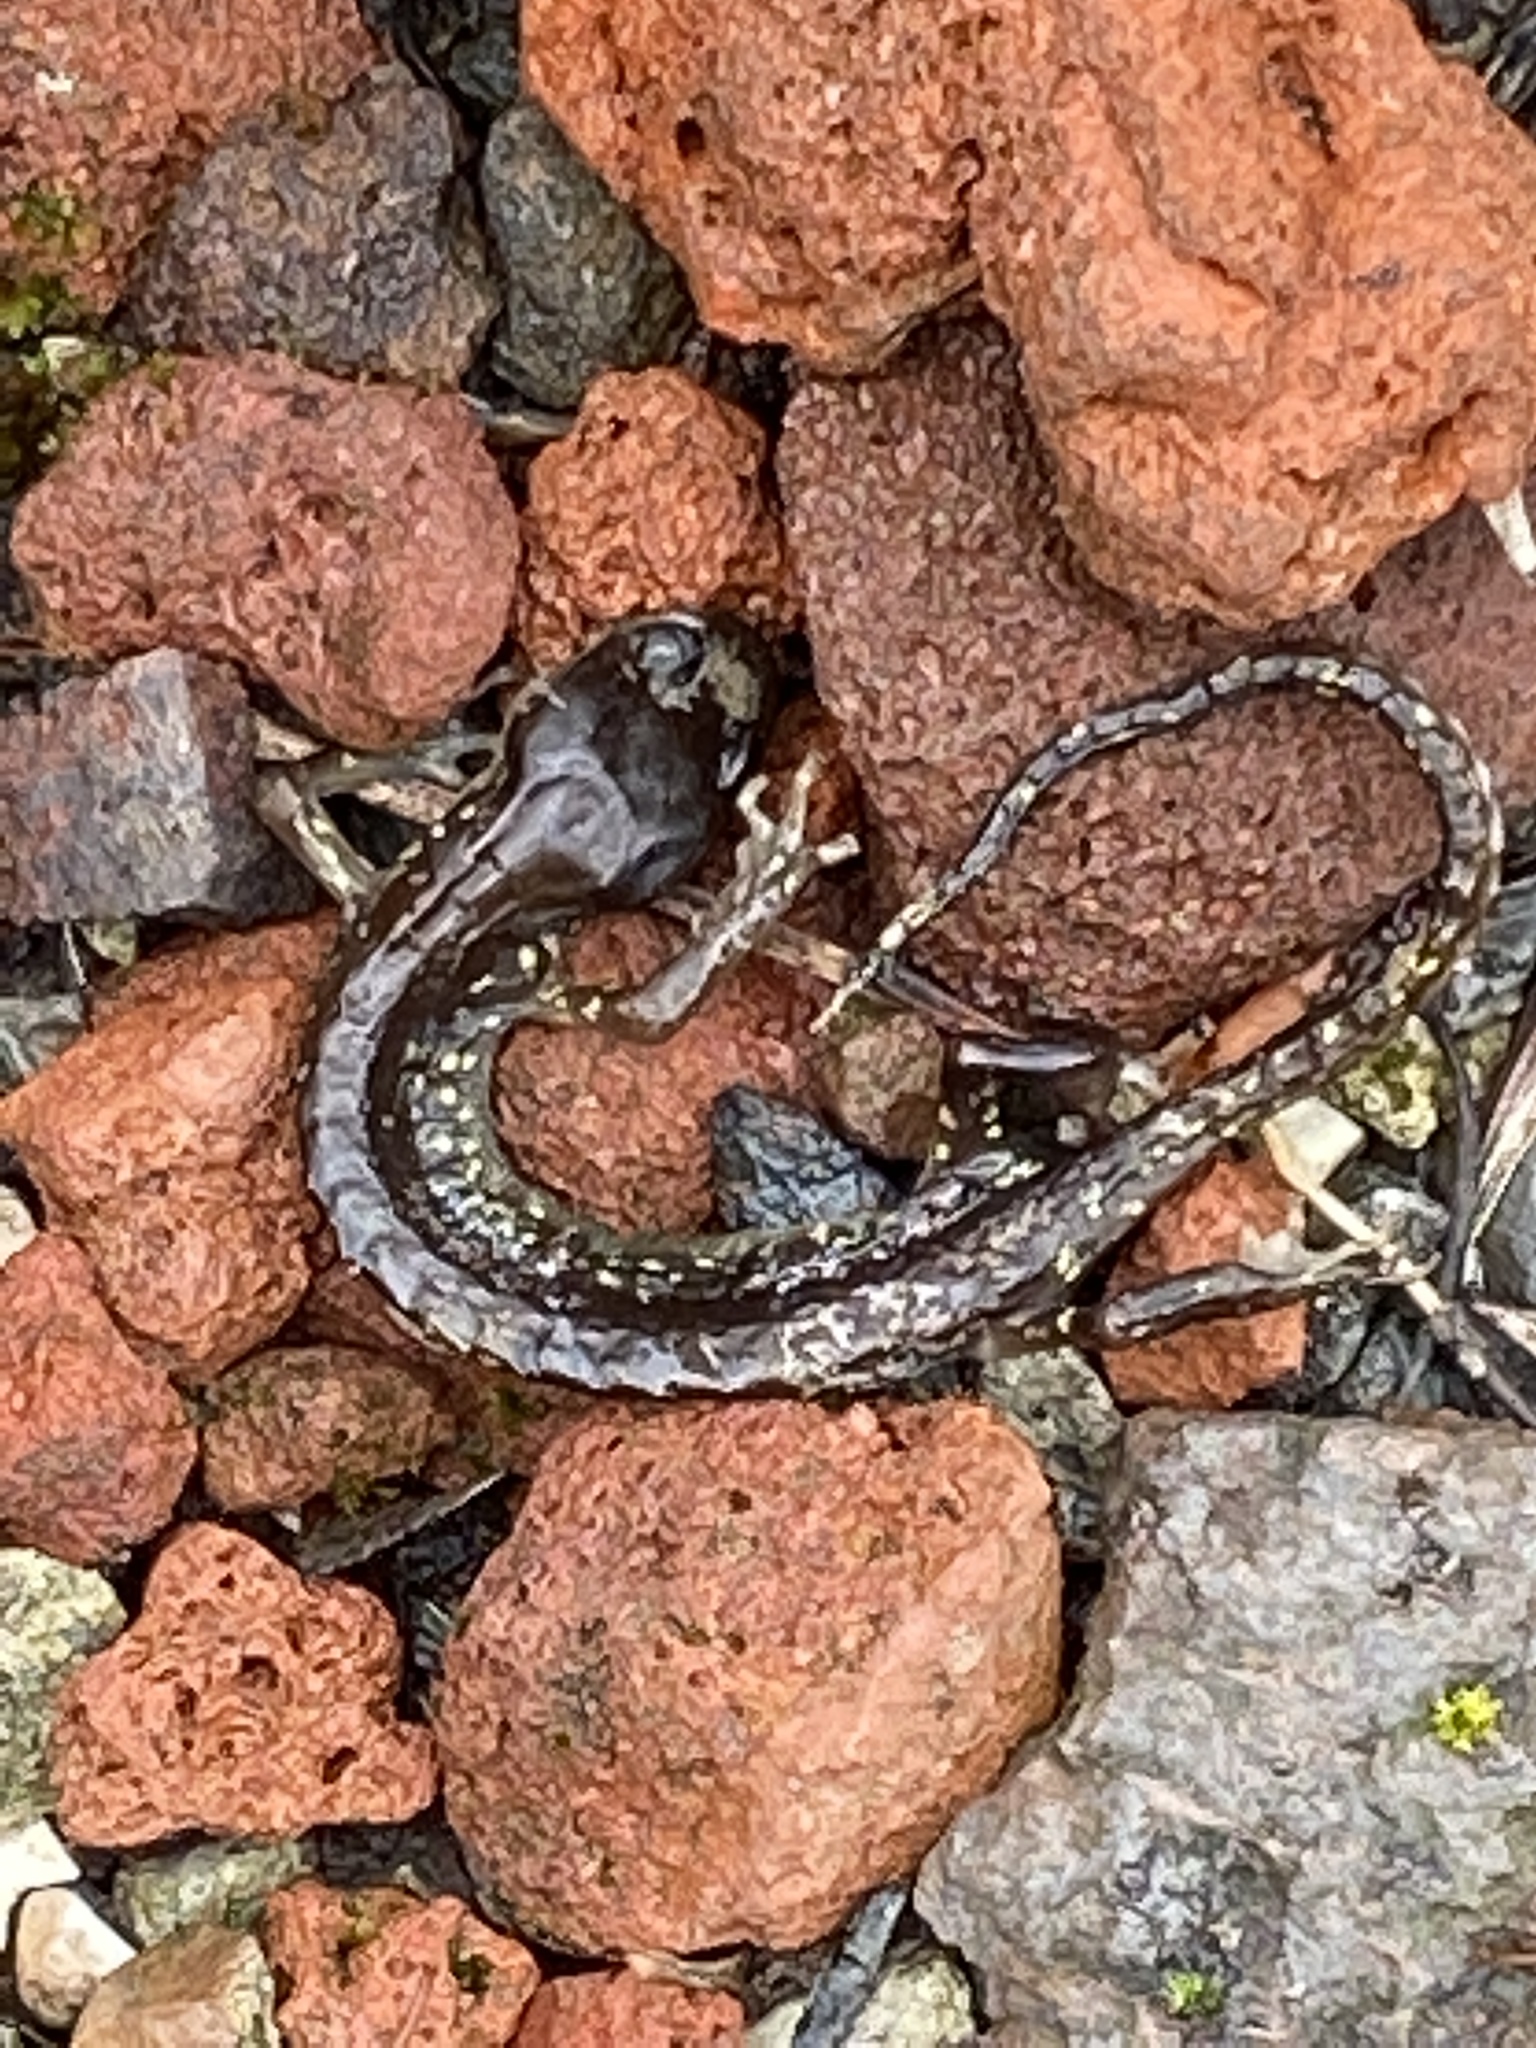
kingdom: Animalia
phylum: Chordata
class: Amphibia
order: Caudata
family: Plethodontidae
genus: Aneides
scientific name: Aneides lugubris
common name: Arboreal salamander
